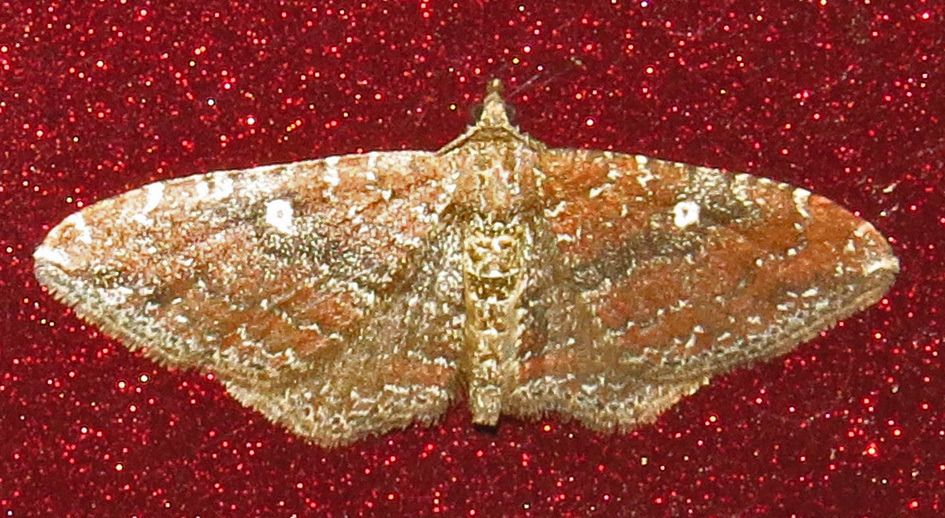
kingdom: Animalia
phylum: Arthropoda
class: Insecta
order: Lepidoptera
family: Geometridae
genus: Orthonama
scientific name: Orthonama obstipata
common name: The gem
